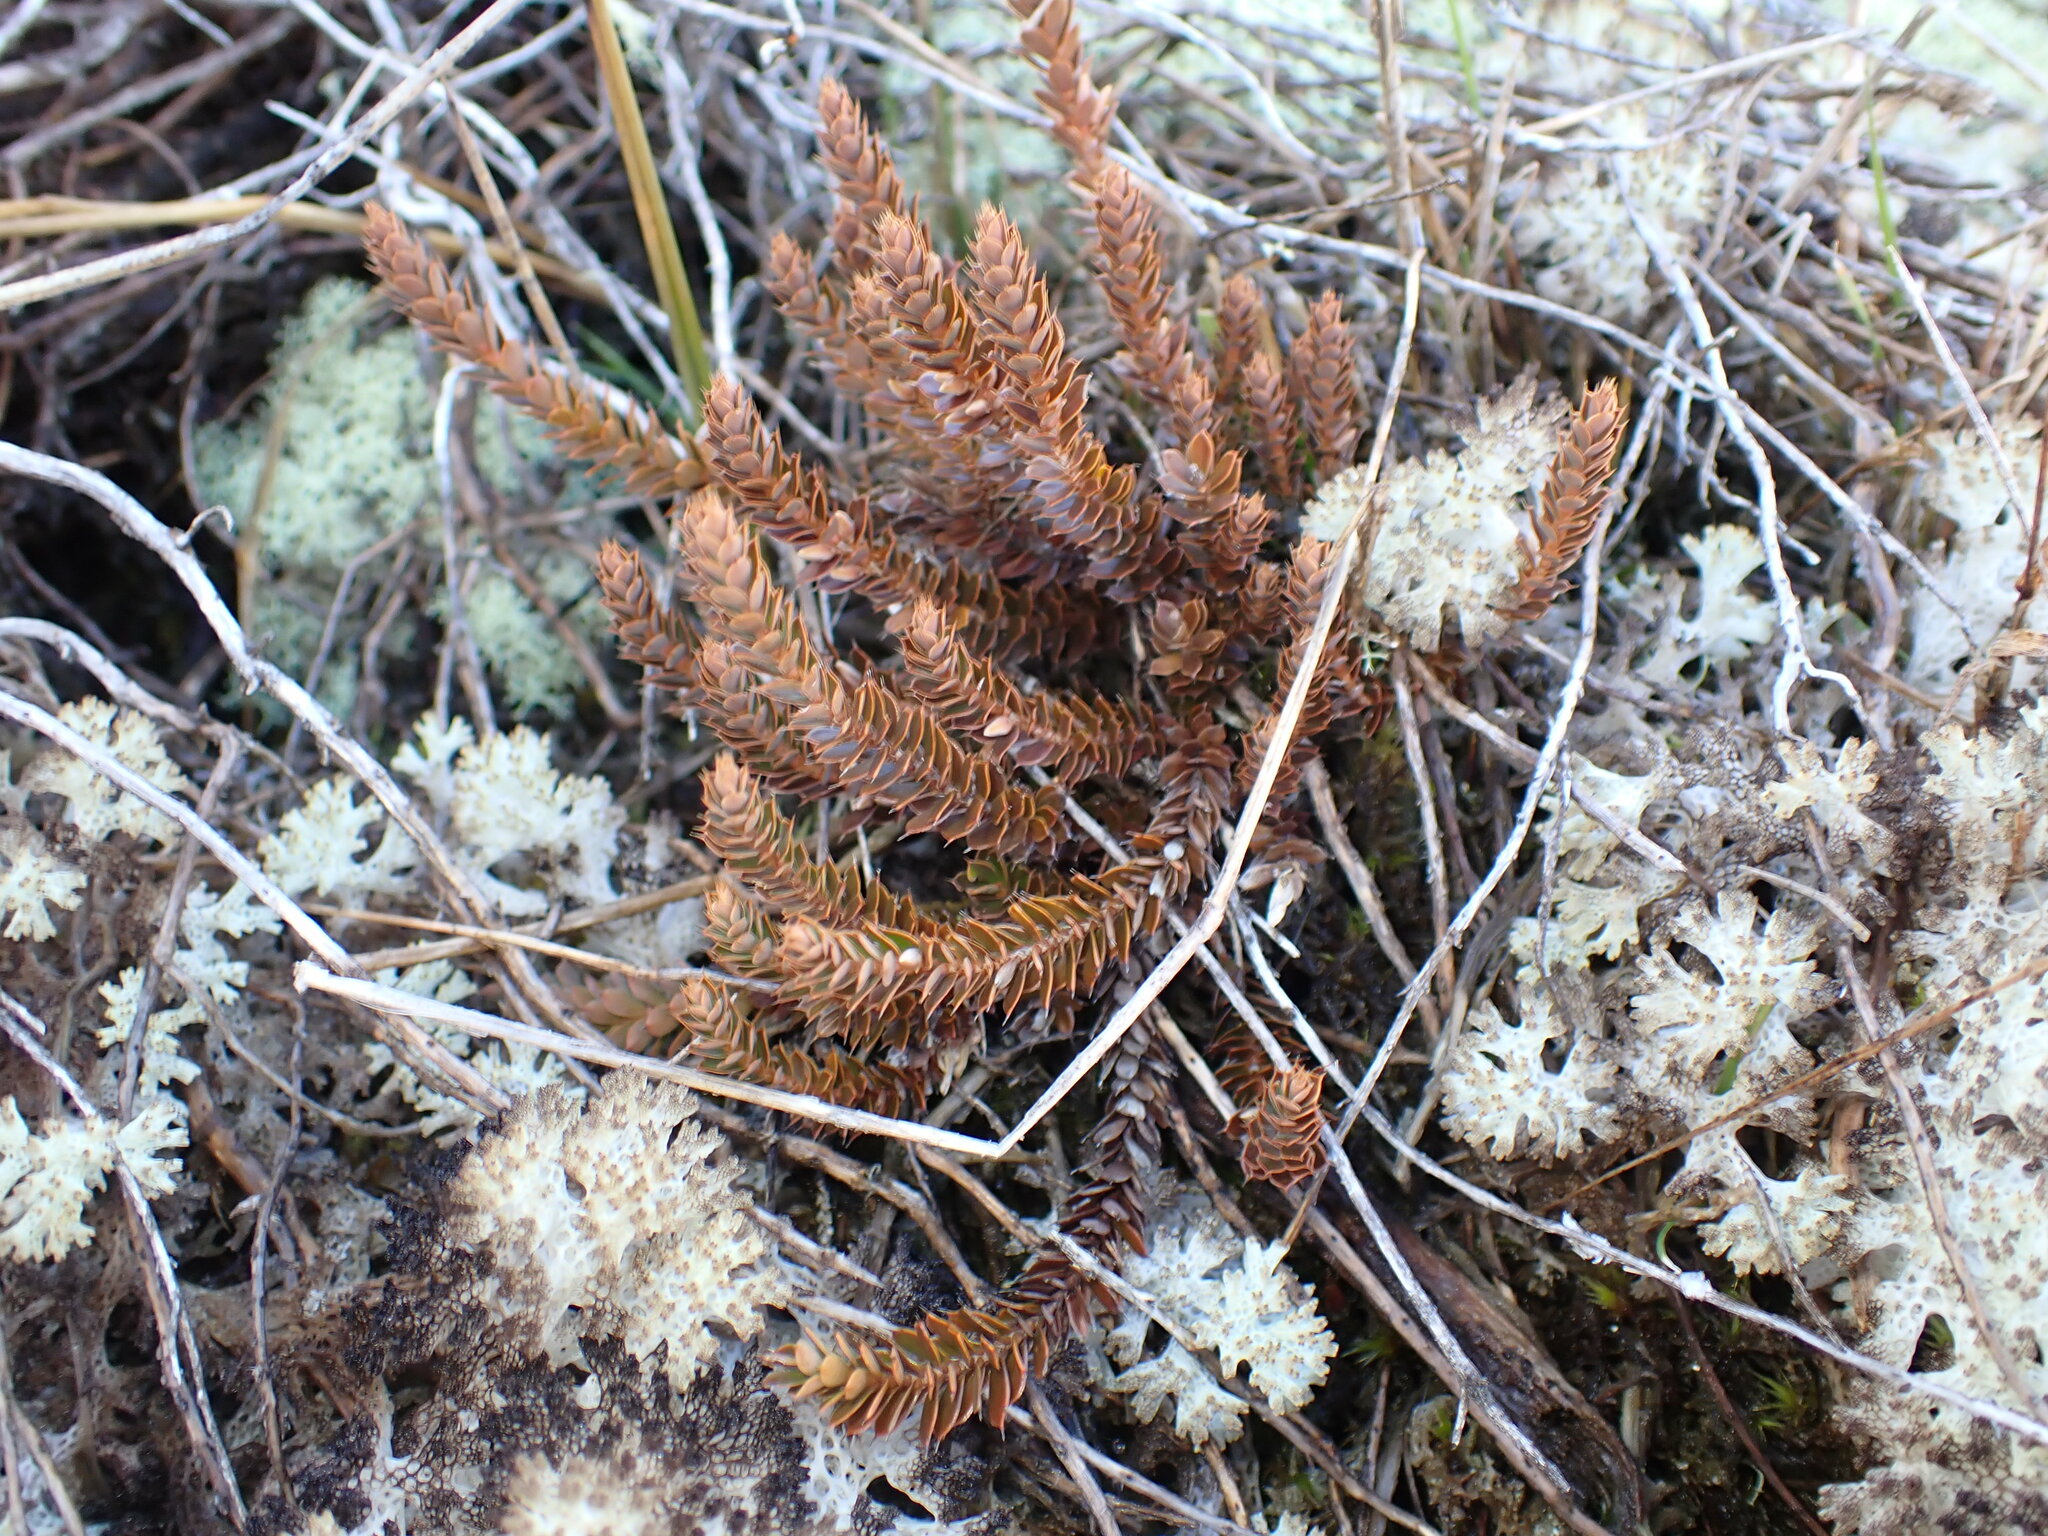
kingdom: Plantae
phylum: Tracheophyta
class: Magnoliopsida
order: Ericales
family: Ericaceae
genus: Styphelia
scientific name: Styphelia nesophila
